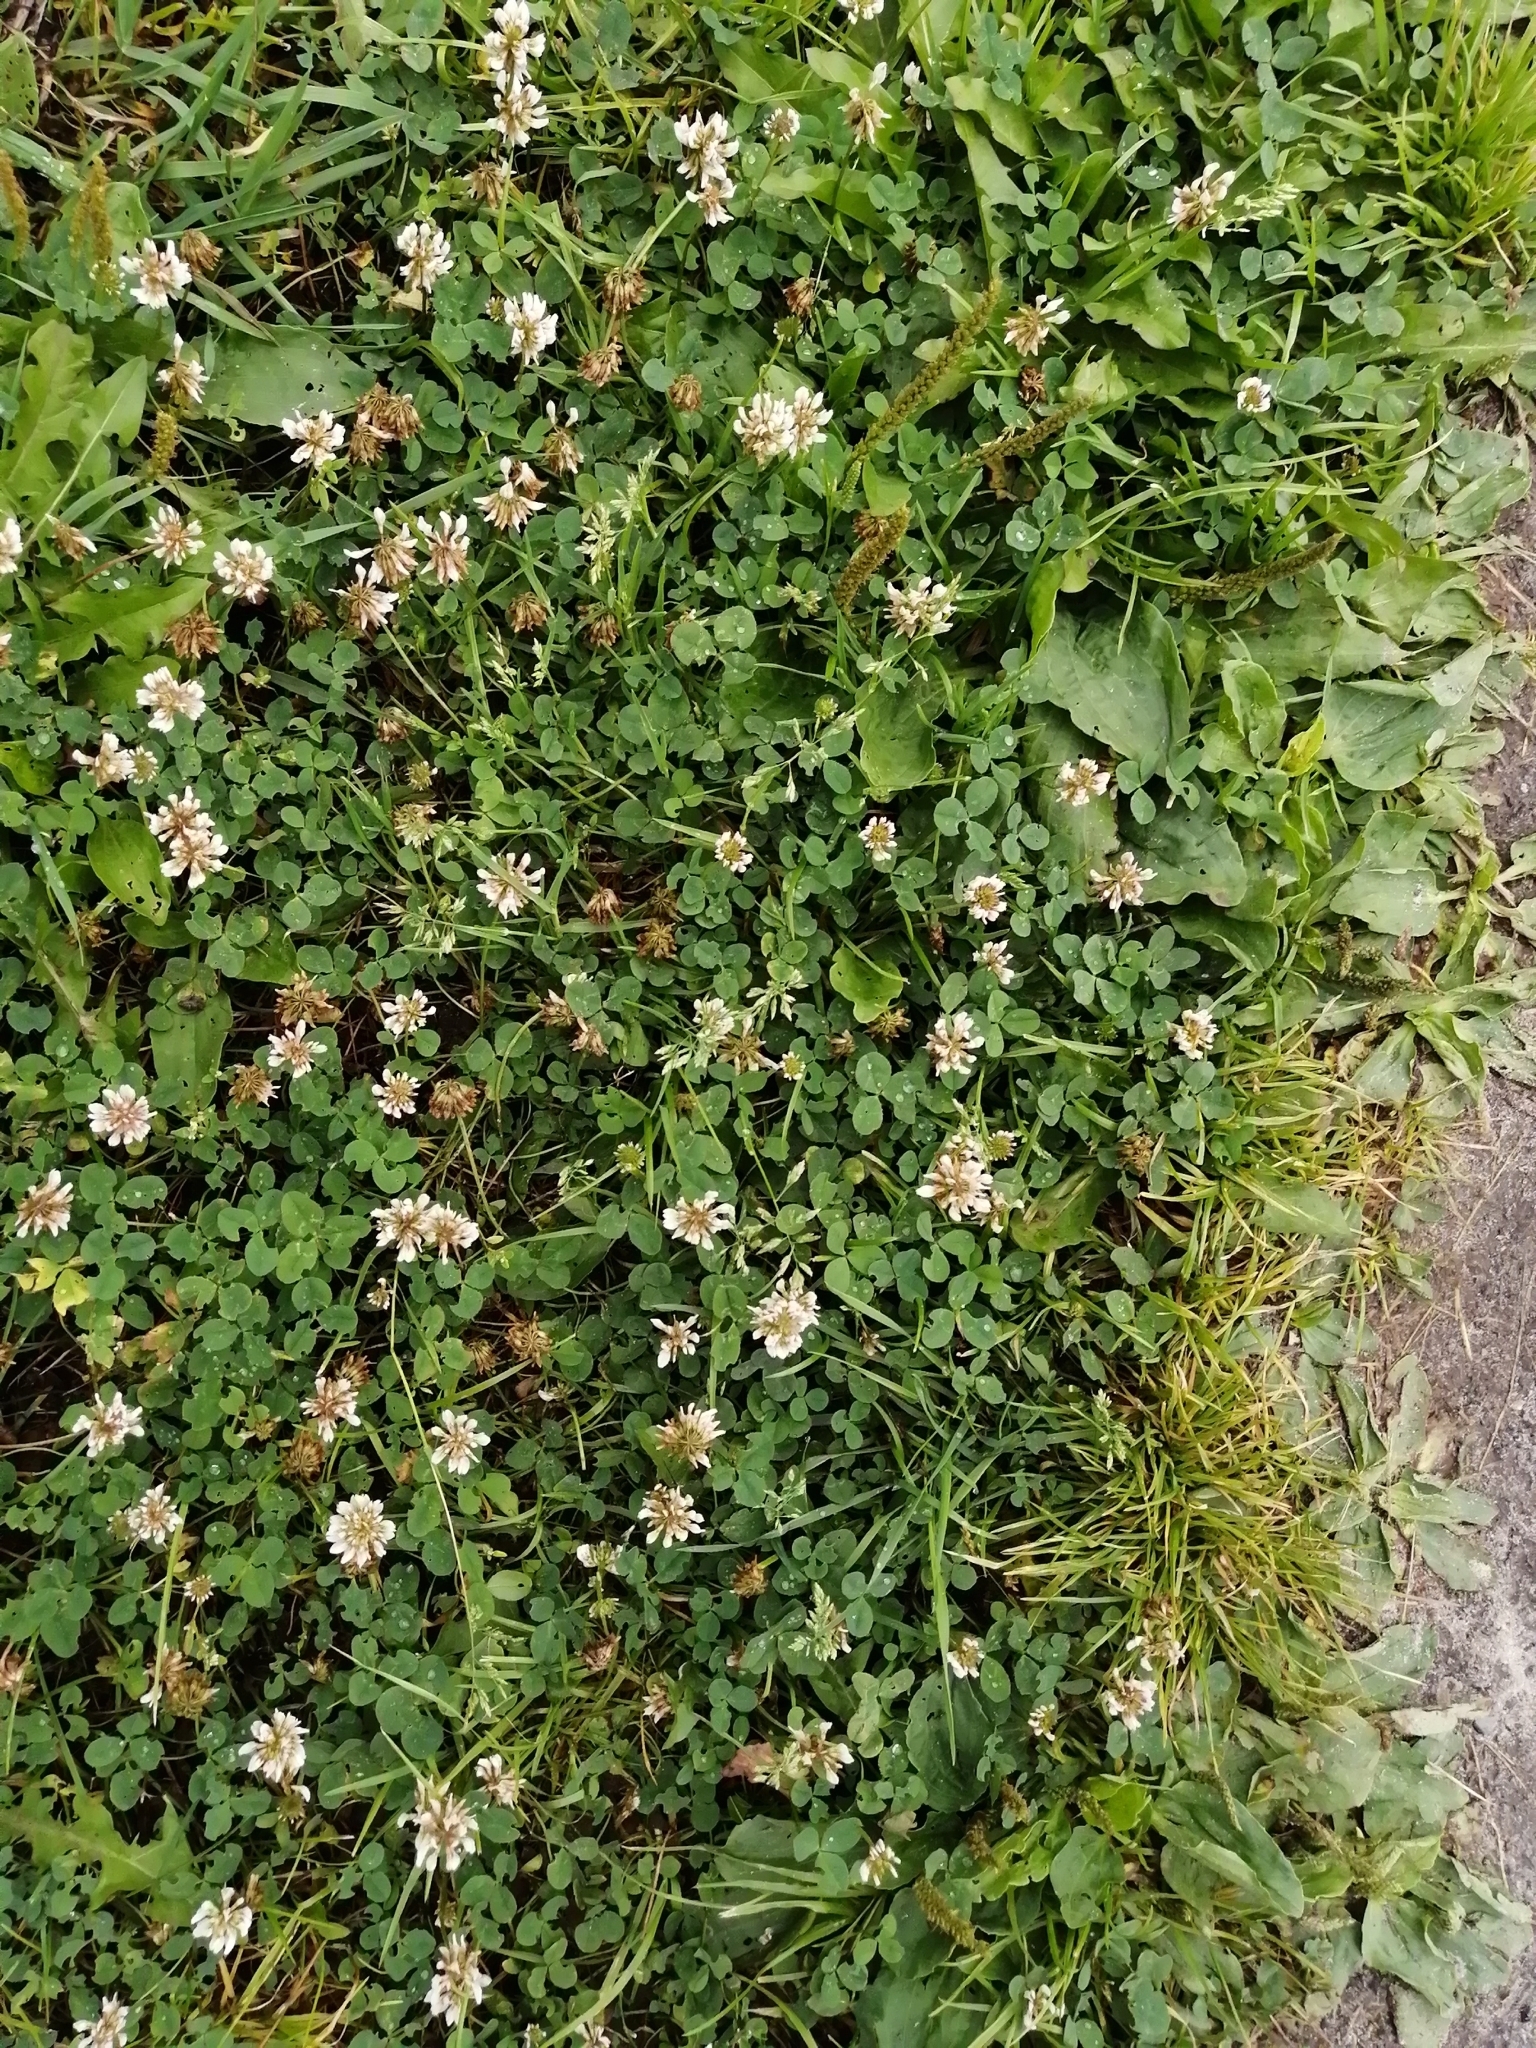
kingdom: Plantae
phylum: Tracheophyta
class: Magnoliopsida
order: Fabales
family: Fabaceae
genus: Trifolium
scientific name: Trifolium repens
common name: White clover
